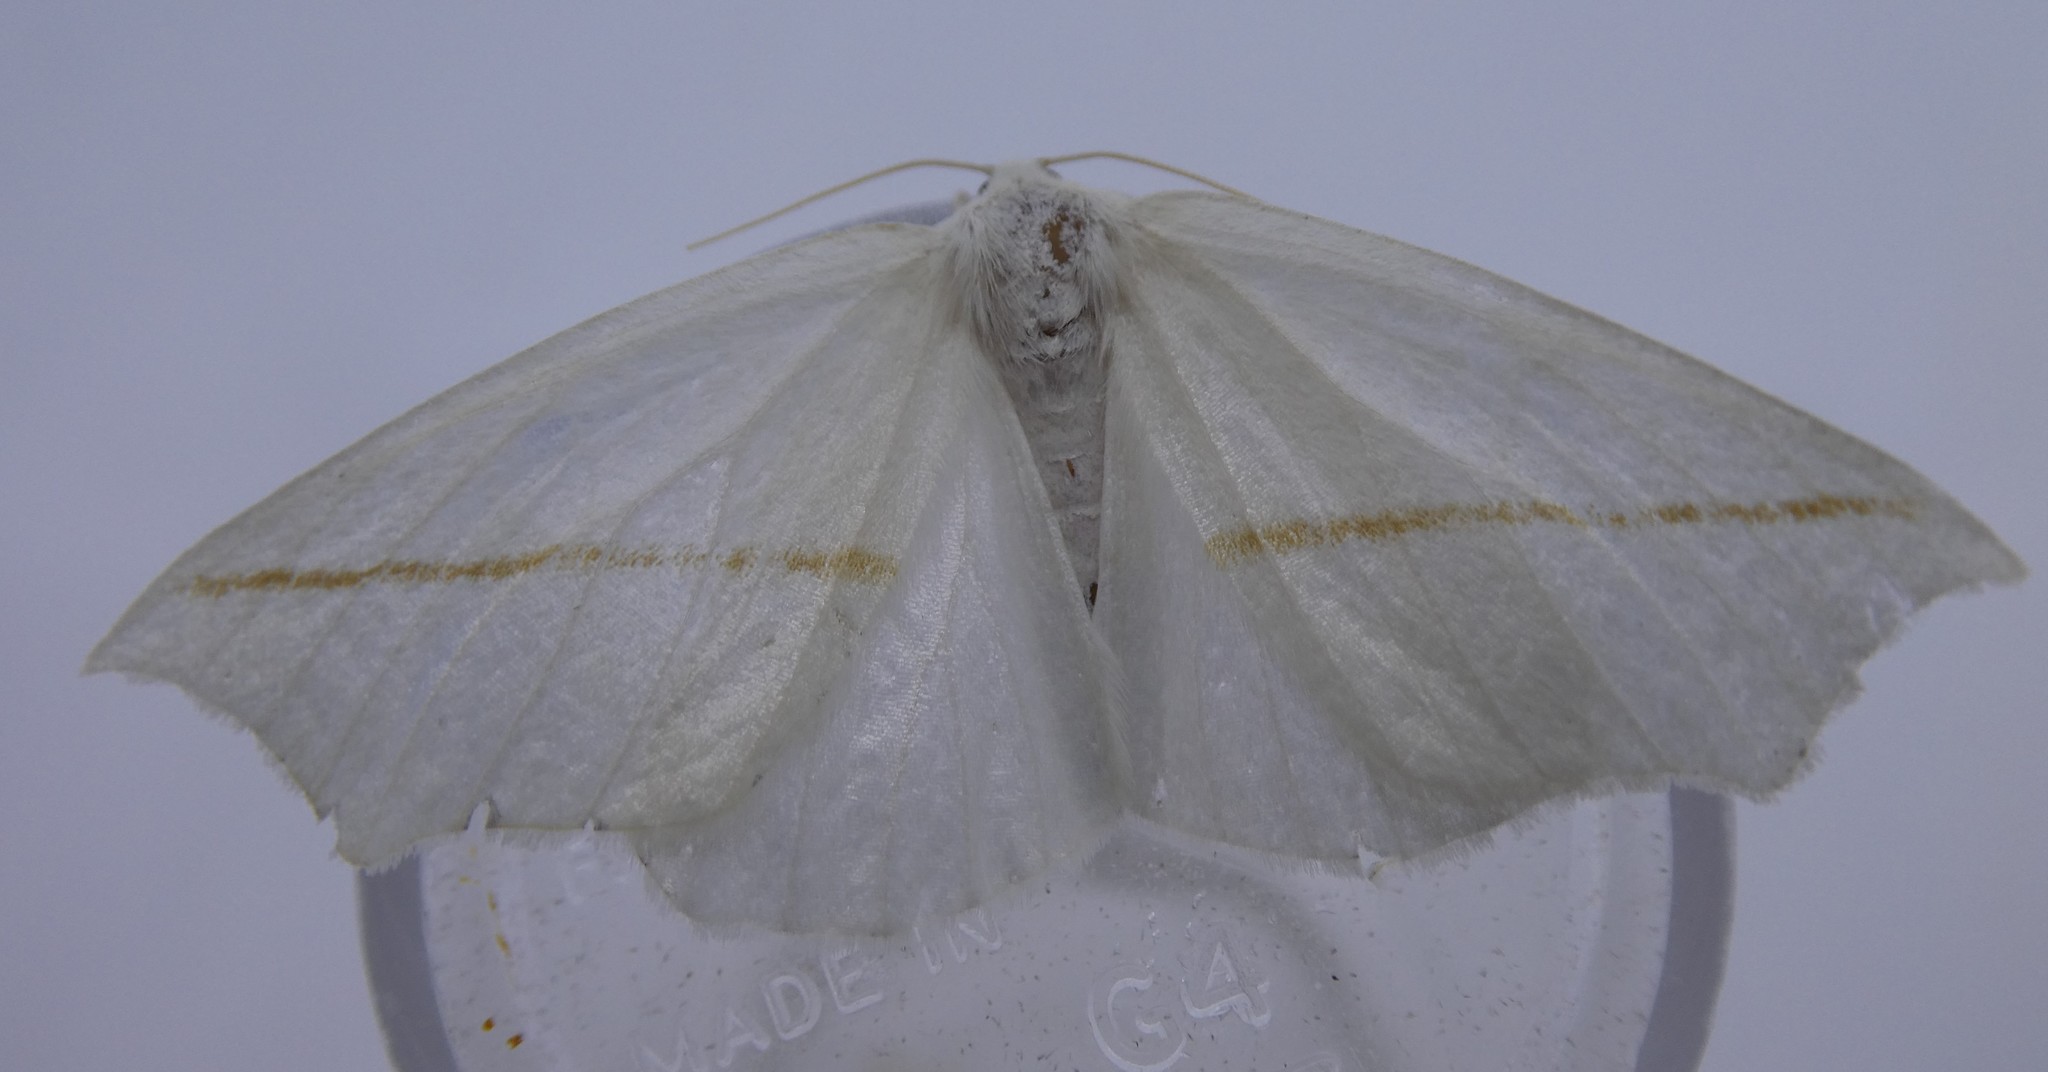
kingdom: Animalia
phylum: Arthropoda
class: Insecta
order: Lepidoptera
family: Geometridae
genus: Tetracis
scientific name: Tetracis cachexiata
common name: White slant-line
